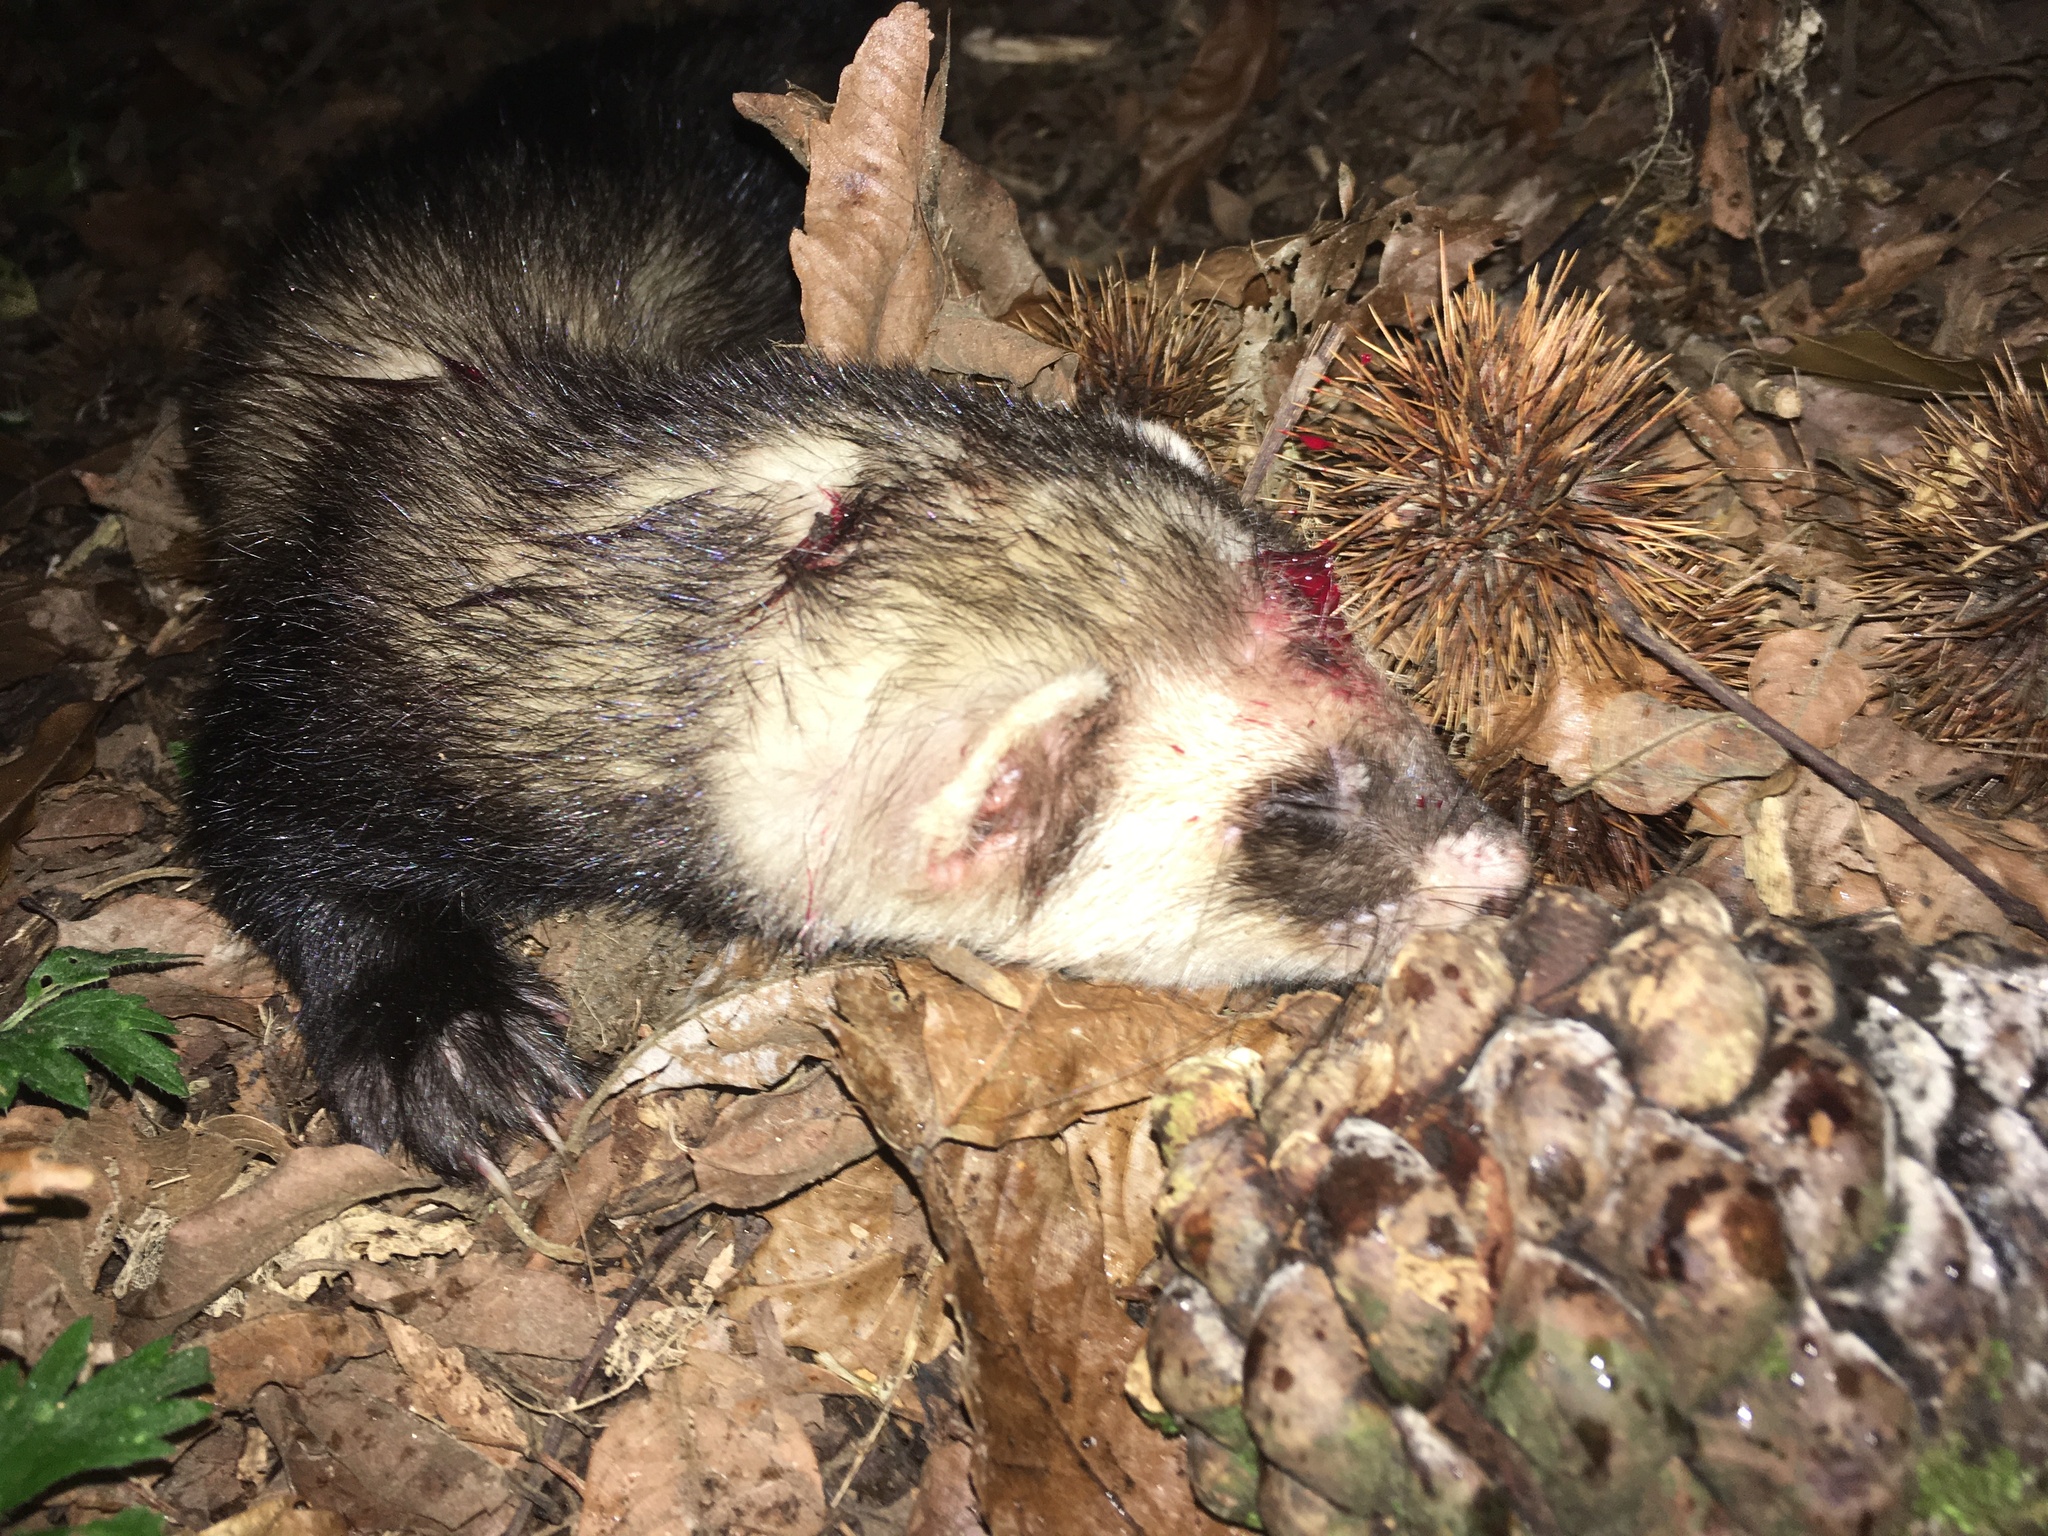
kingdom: Animalia
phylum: Chordata
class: Mammalia
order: Carnivora
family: Mustelidae
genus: Mustela
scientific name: Mustela putorius
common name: European polecat
